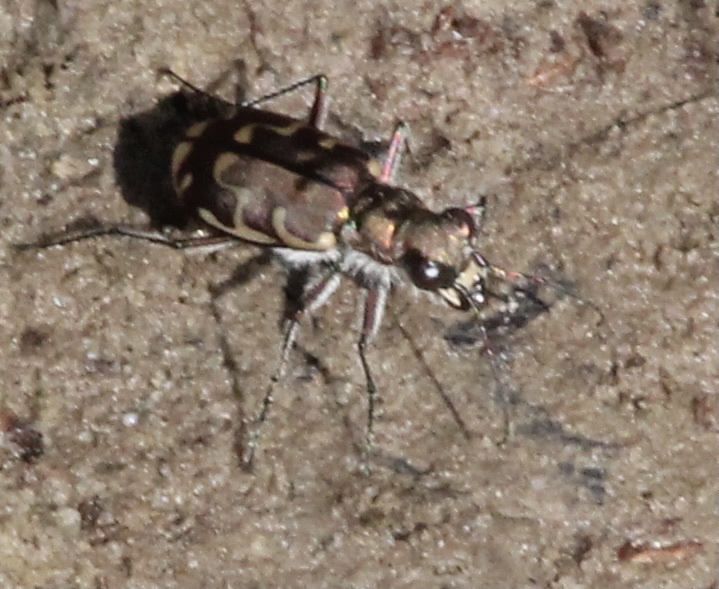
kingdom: Animalia
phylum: Arthropoda
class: Insecta
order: Coleoptera
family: Carabidae
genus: Cicindela
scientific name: Cicindela repanda
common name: Bronzed tiger beetle
